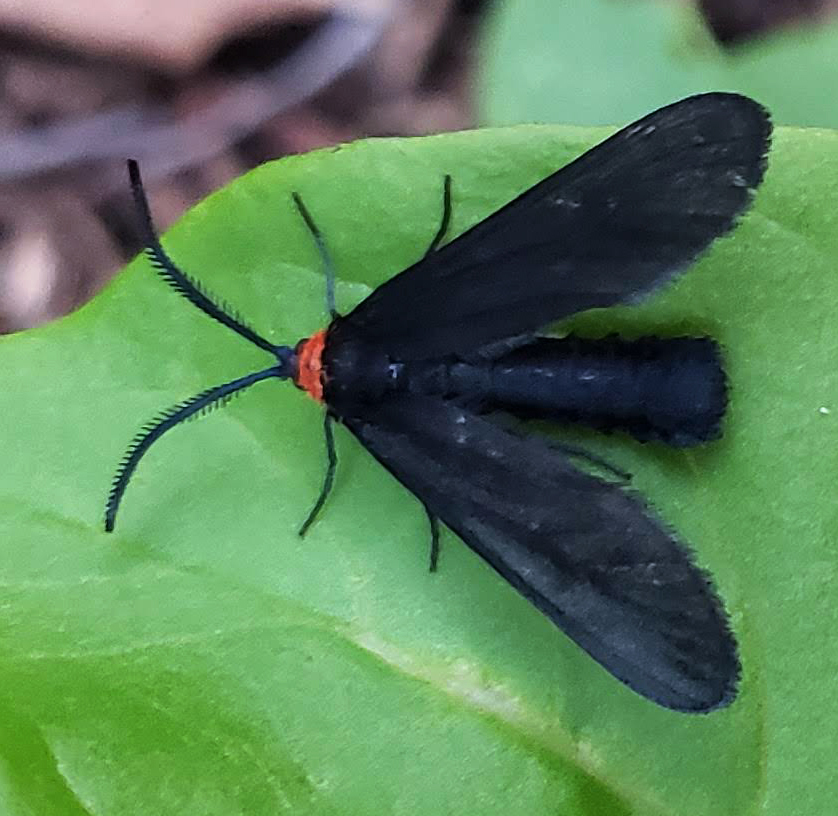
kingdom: Animalia
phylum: Arthropoda
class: Insecta
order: Lepidoptera
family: Zygaenidae
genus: Harrisina
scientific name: Harrisina americana
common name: Grapeleaf skeletonizer moth
